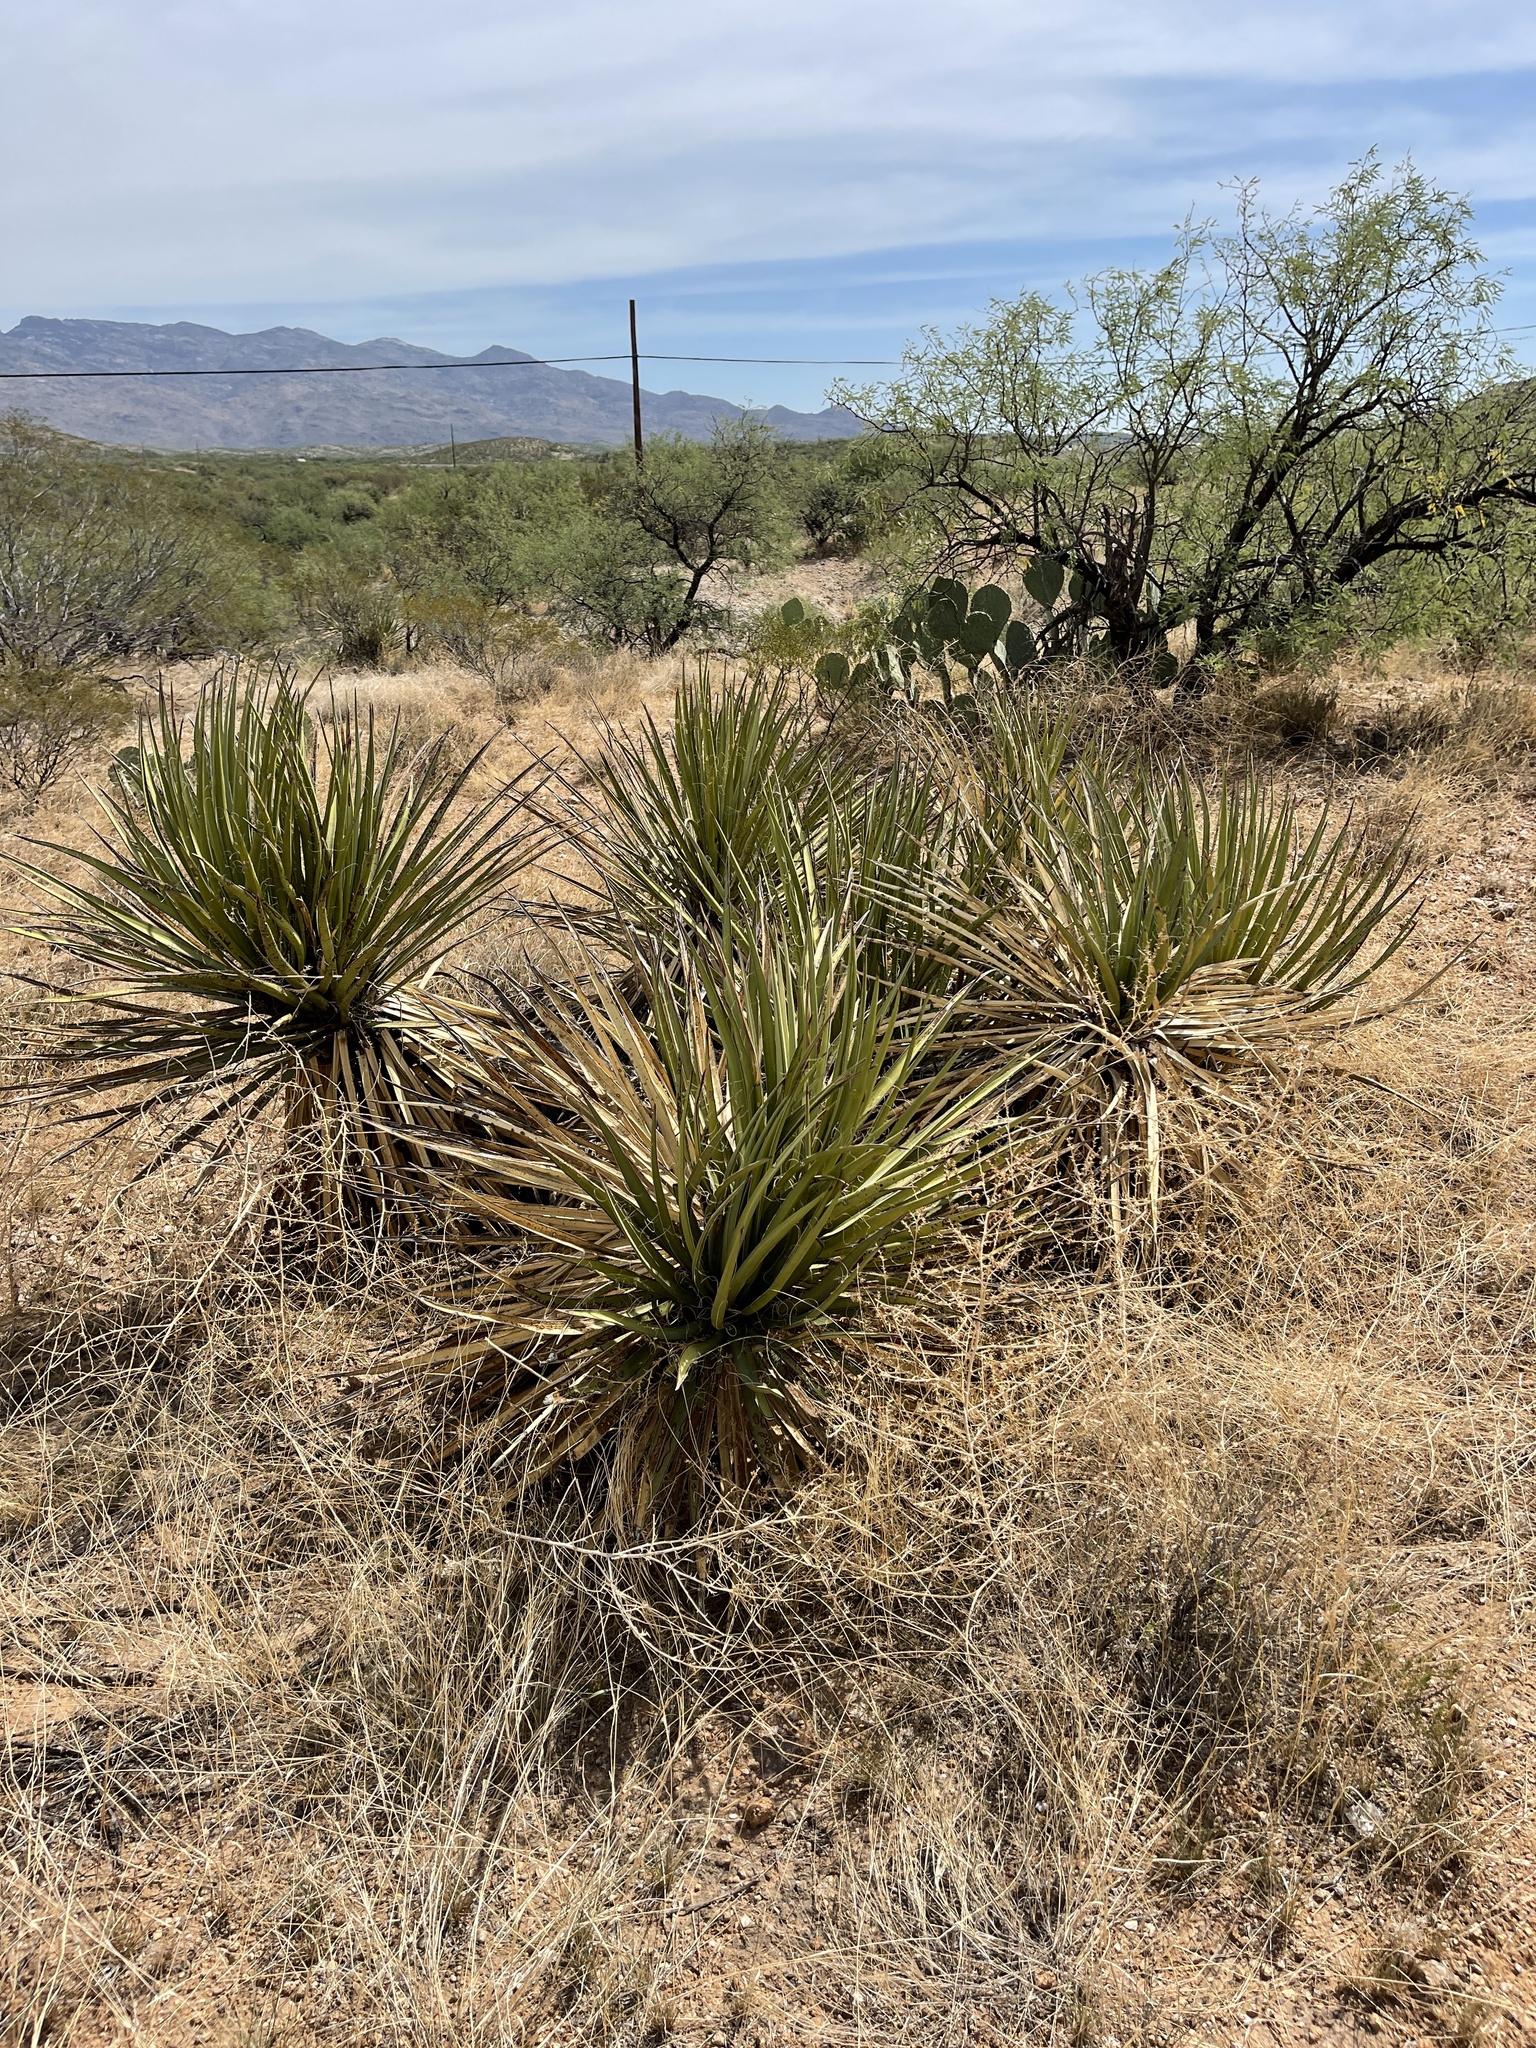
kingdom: Plantae
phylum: Tracheophyta
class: Liliopsida
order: Asparagales
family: Asparagaceae
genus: Yucca
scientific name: Yucca baccata
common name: Banana yucca
